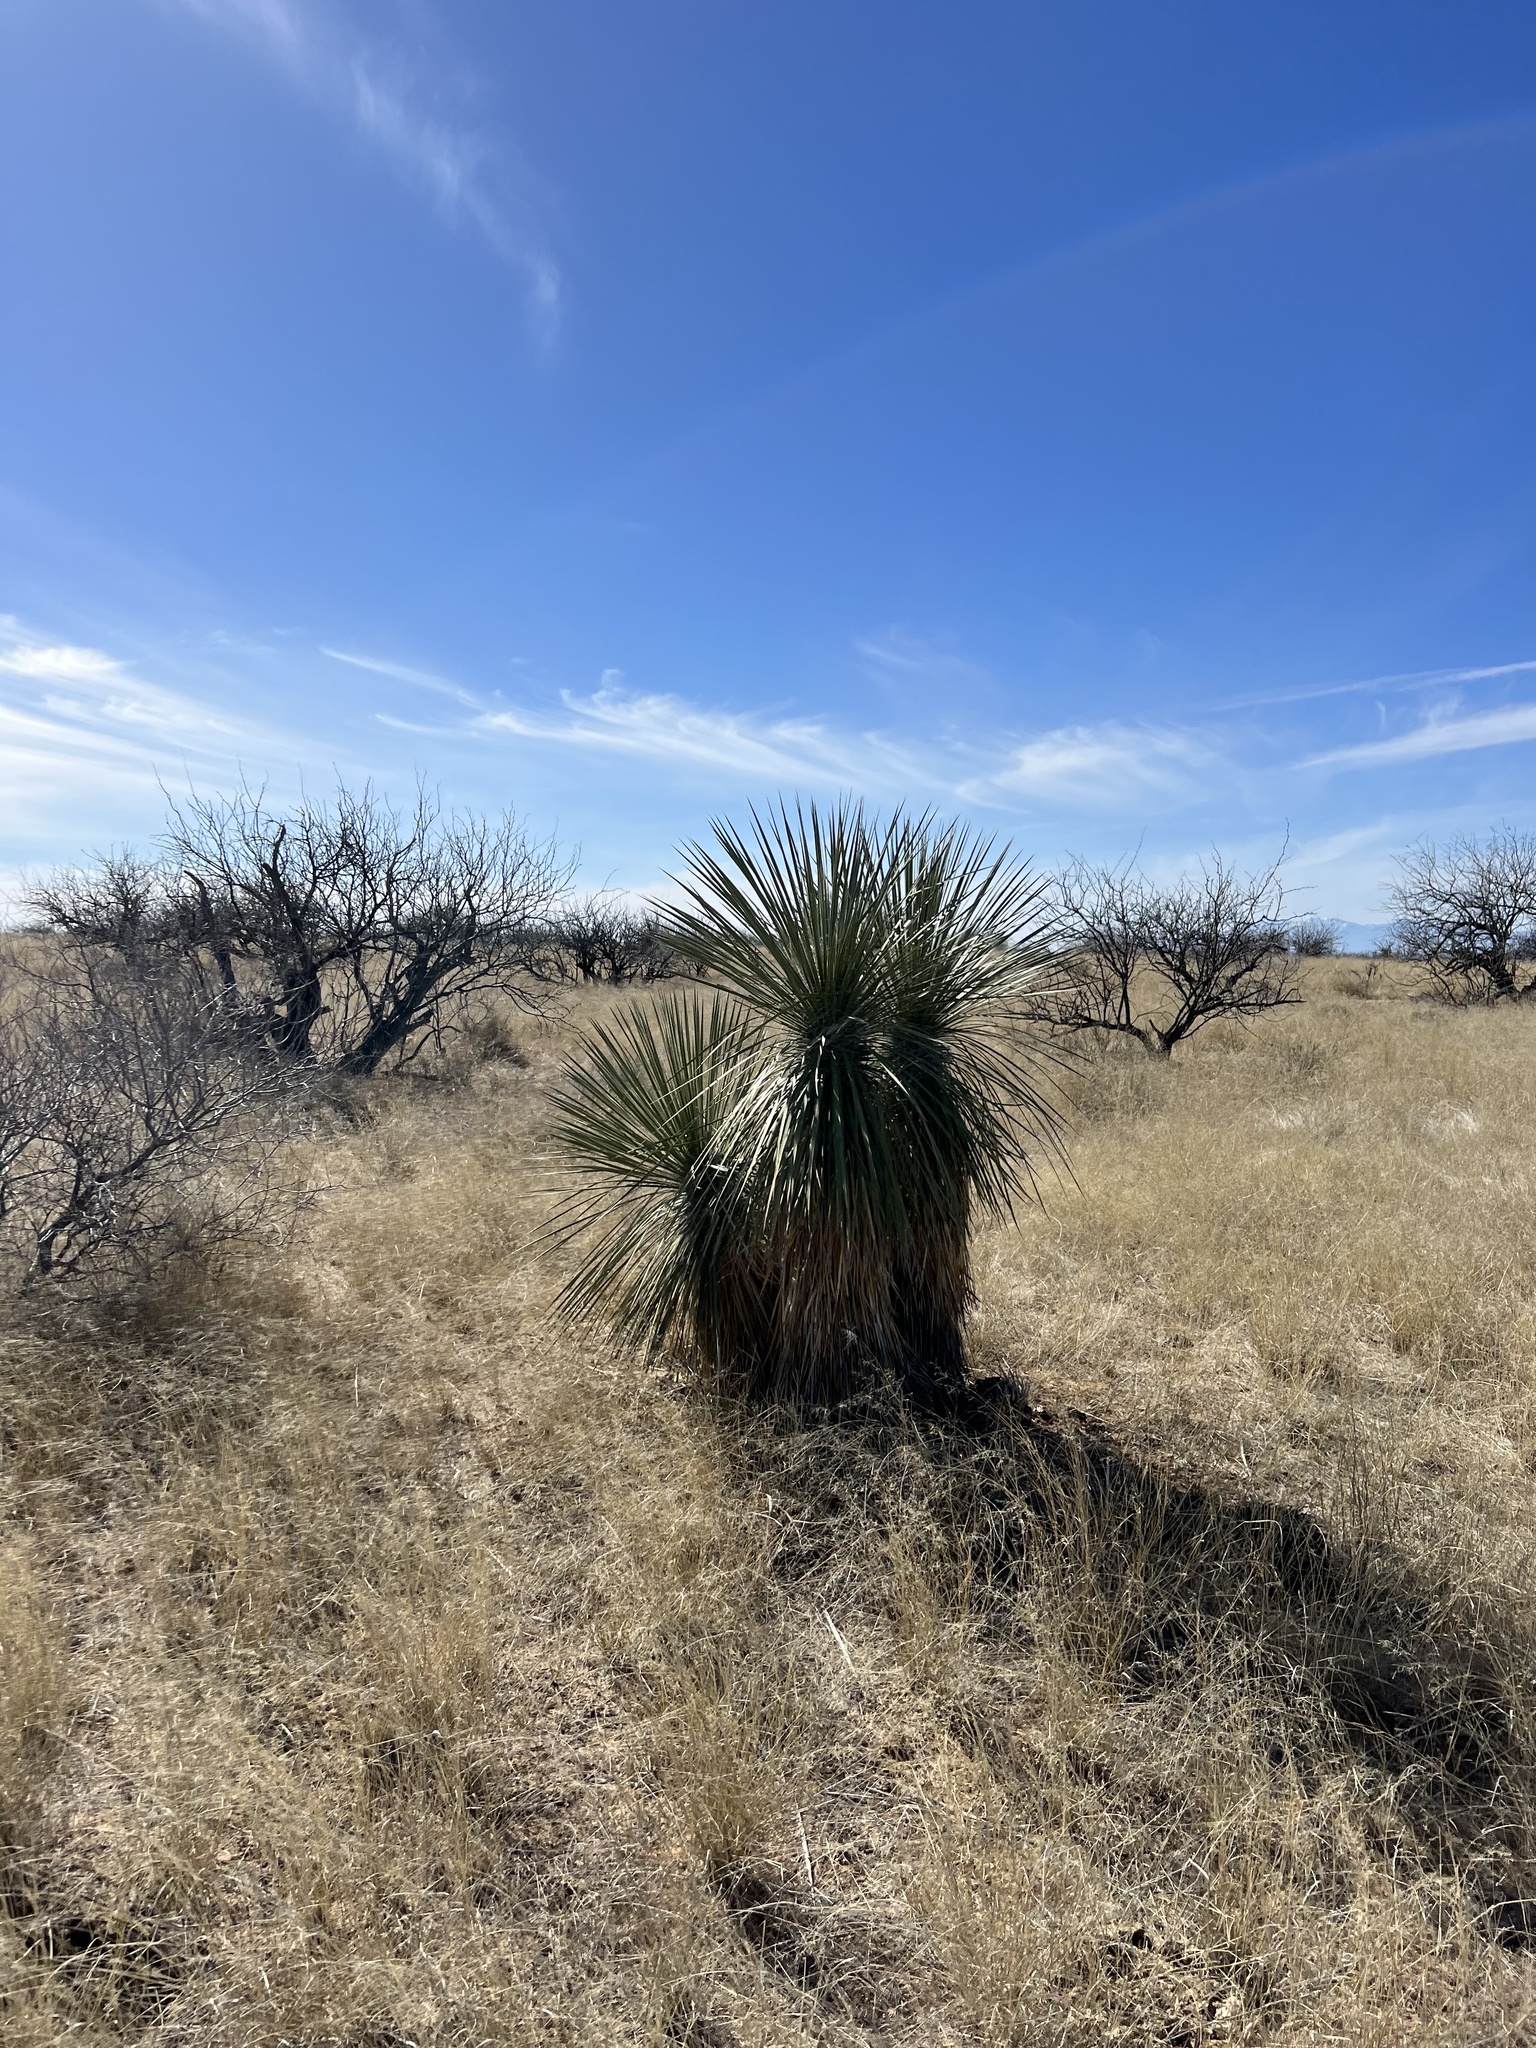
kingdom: Plantae
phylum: Tracheophyta
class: Liliopsida
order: Asparagales
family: Asparagaceae
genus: Yucca
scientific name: Yucca elata
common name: Palmella
